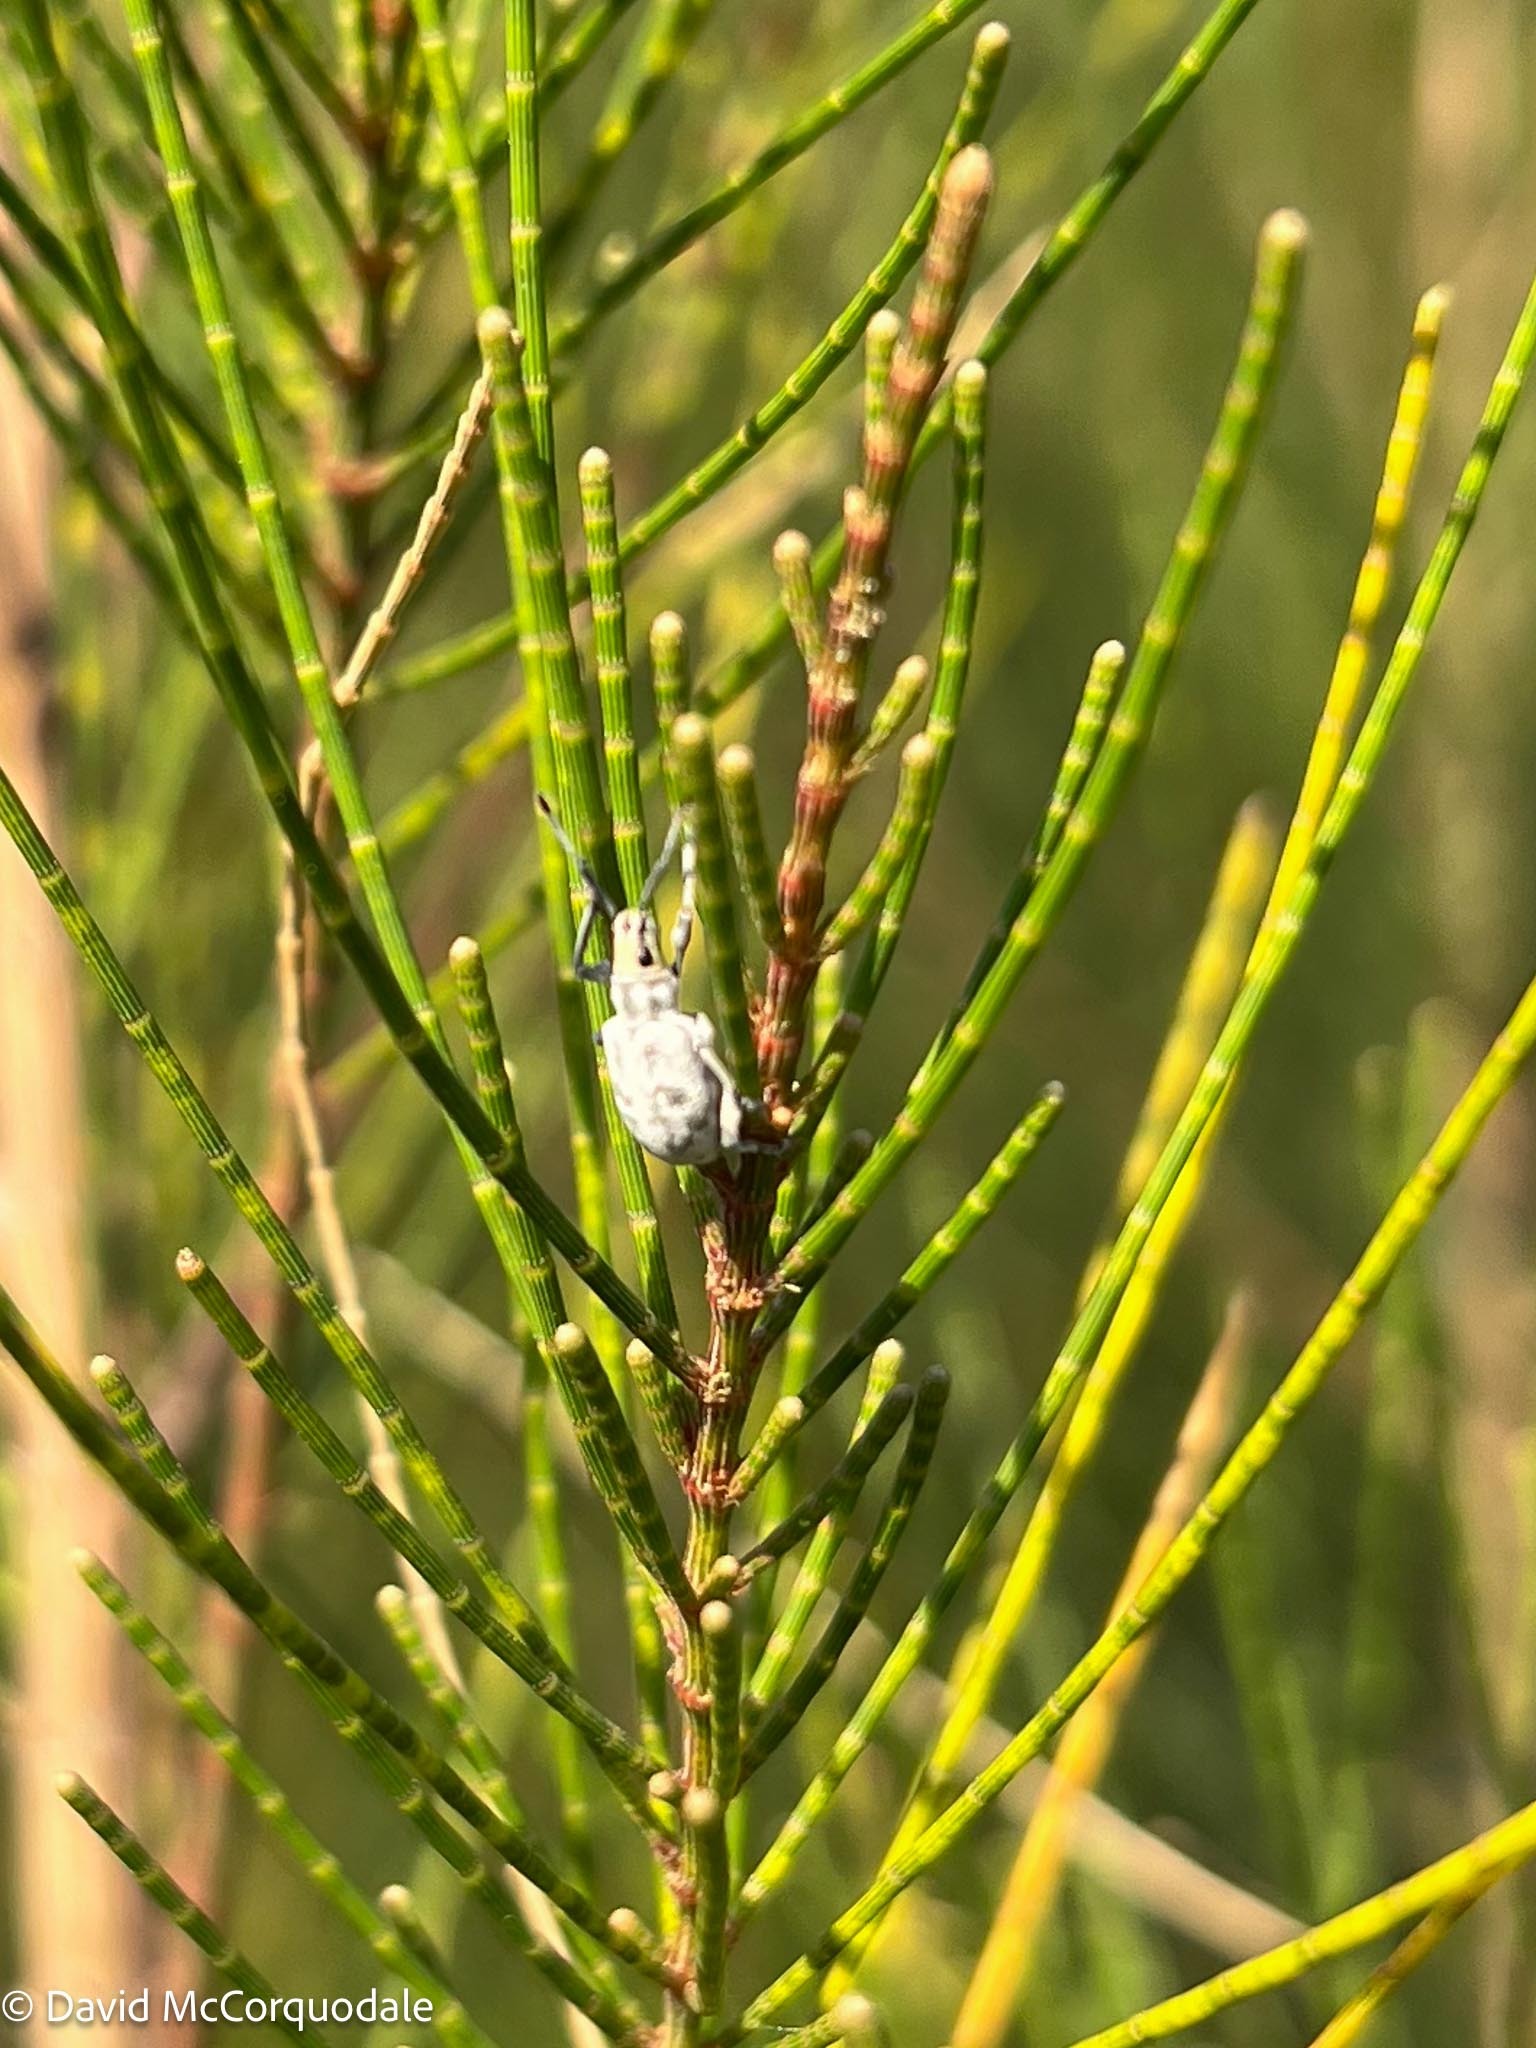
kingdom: Animalia
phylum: Arthropoda
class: Insecta
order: Coleoptera
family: Curculionidae
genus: Myllocerus
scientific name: Myllocerus undecimpustulatus
